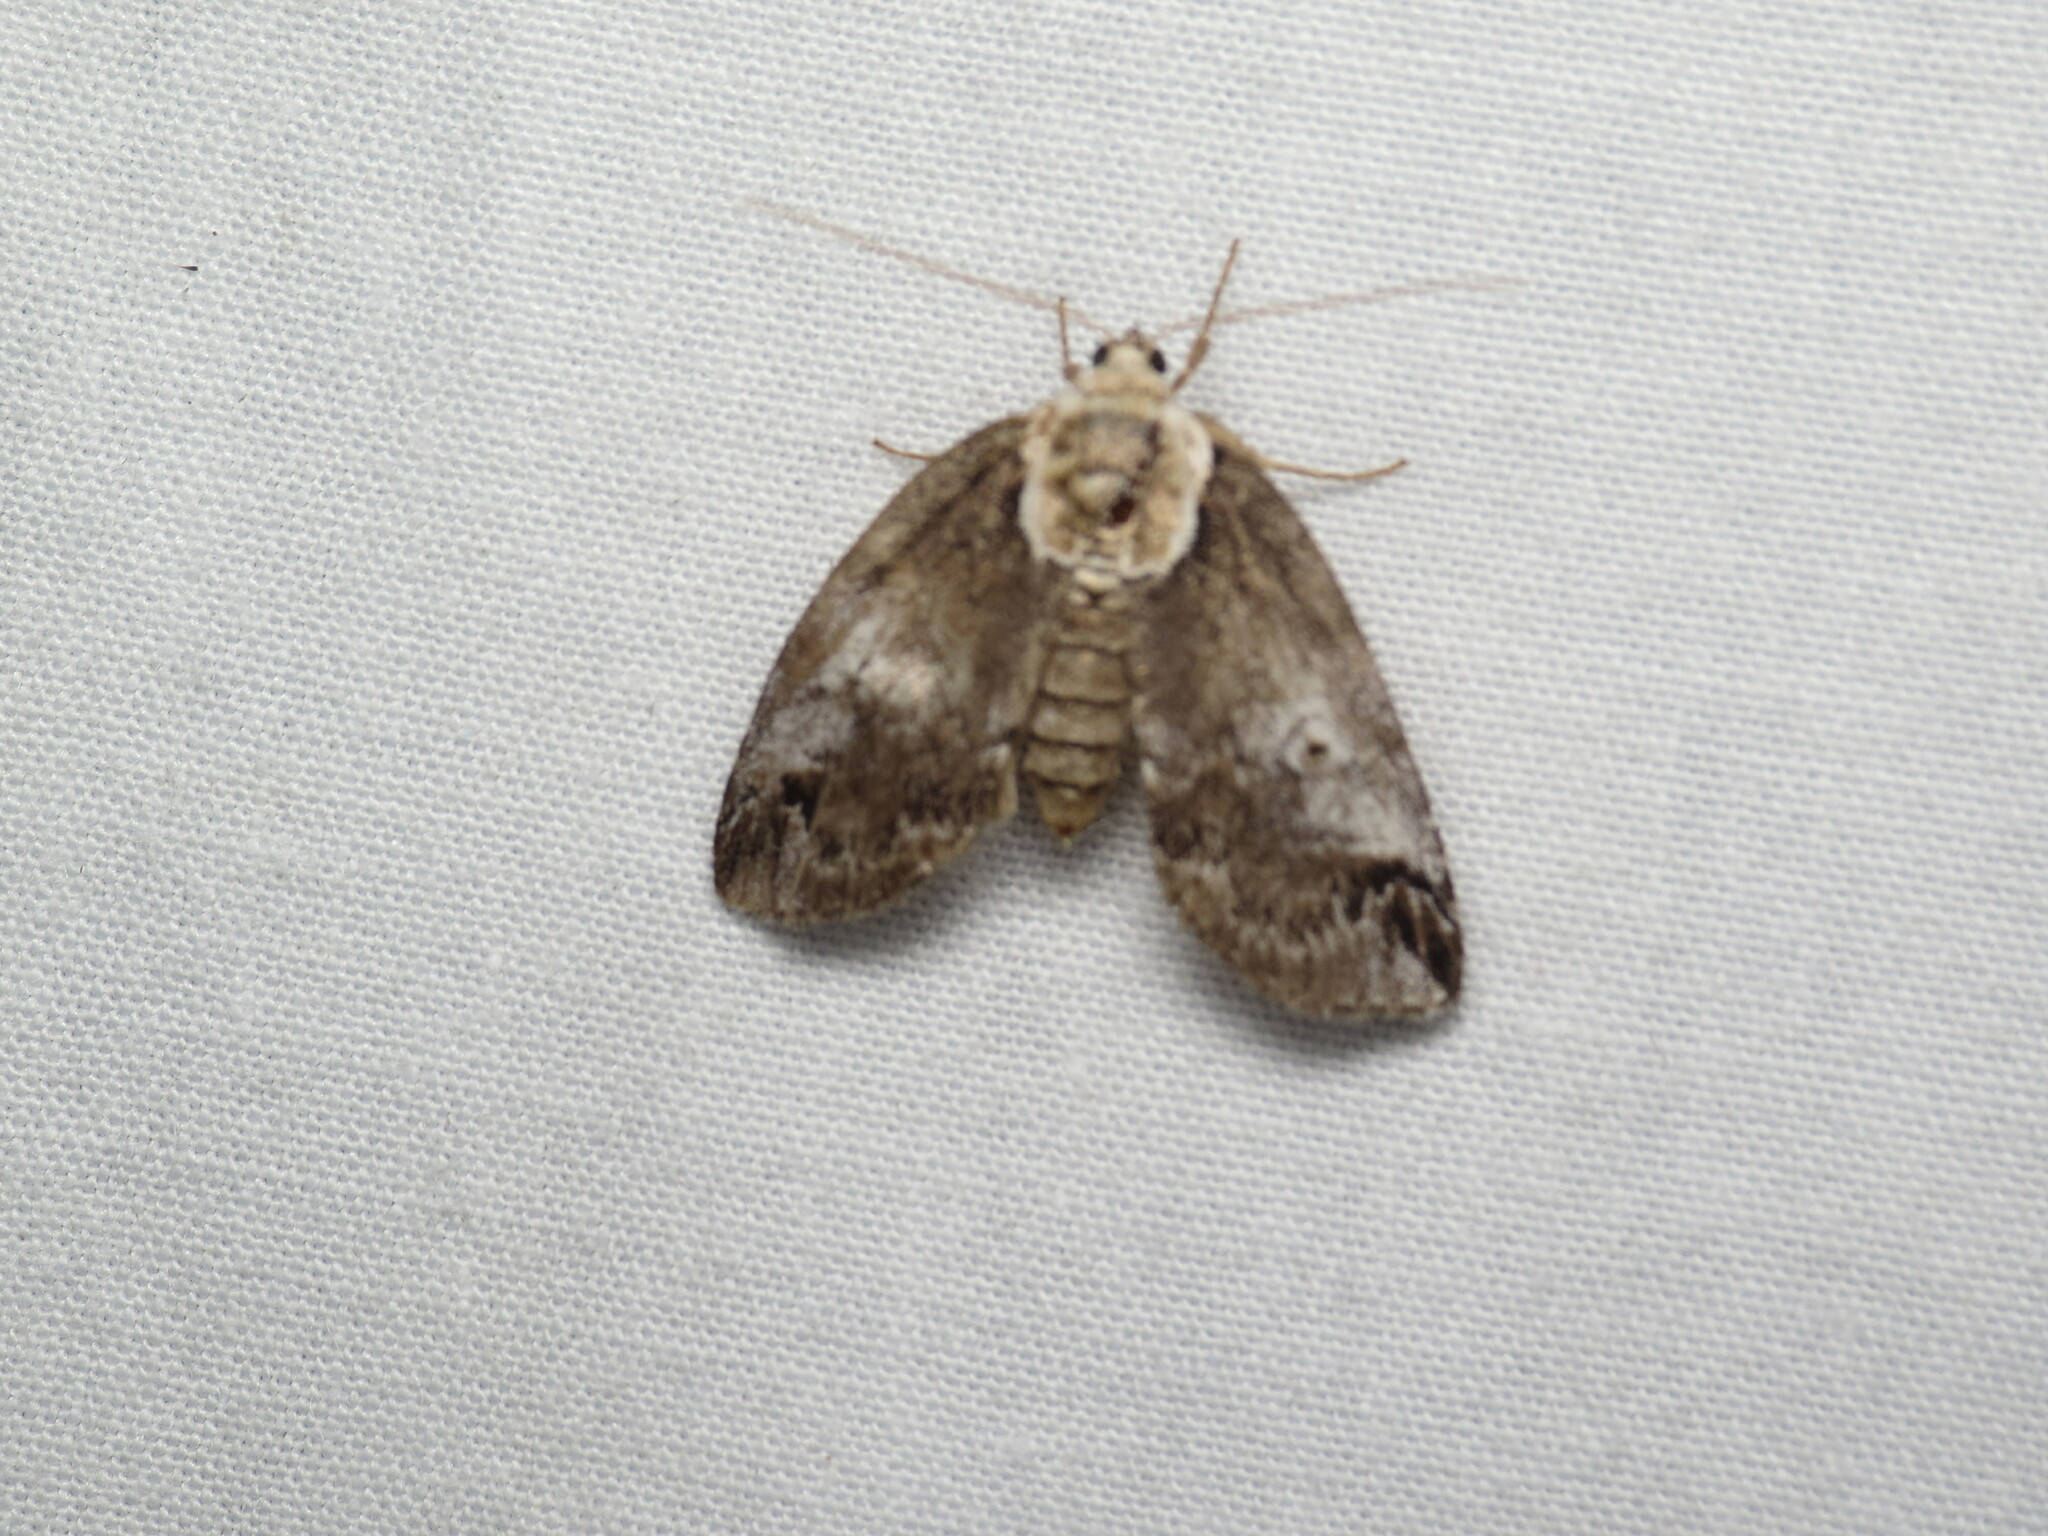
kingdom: Animalia
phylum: Arthropoda
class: Insecta
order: Lepidoptera
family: Nolidae
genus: Baileya
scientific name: Baileya ophthalmica
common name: Eyed baileya moth
